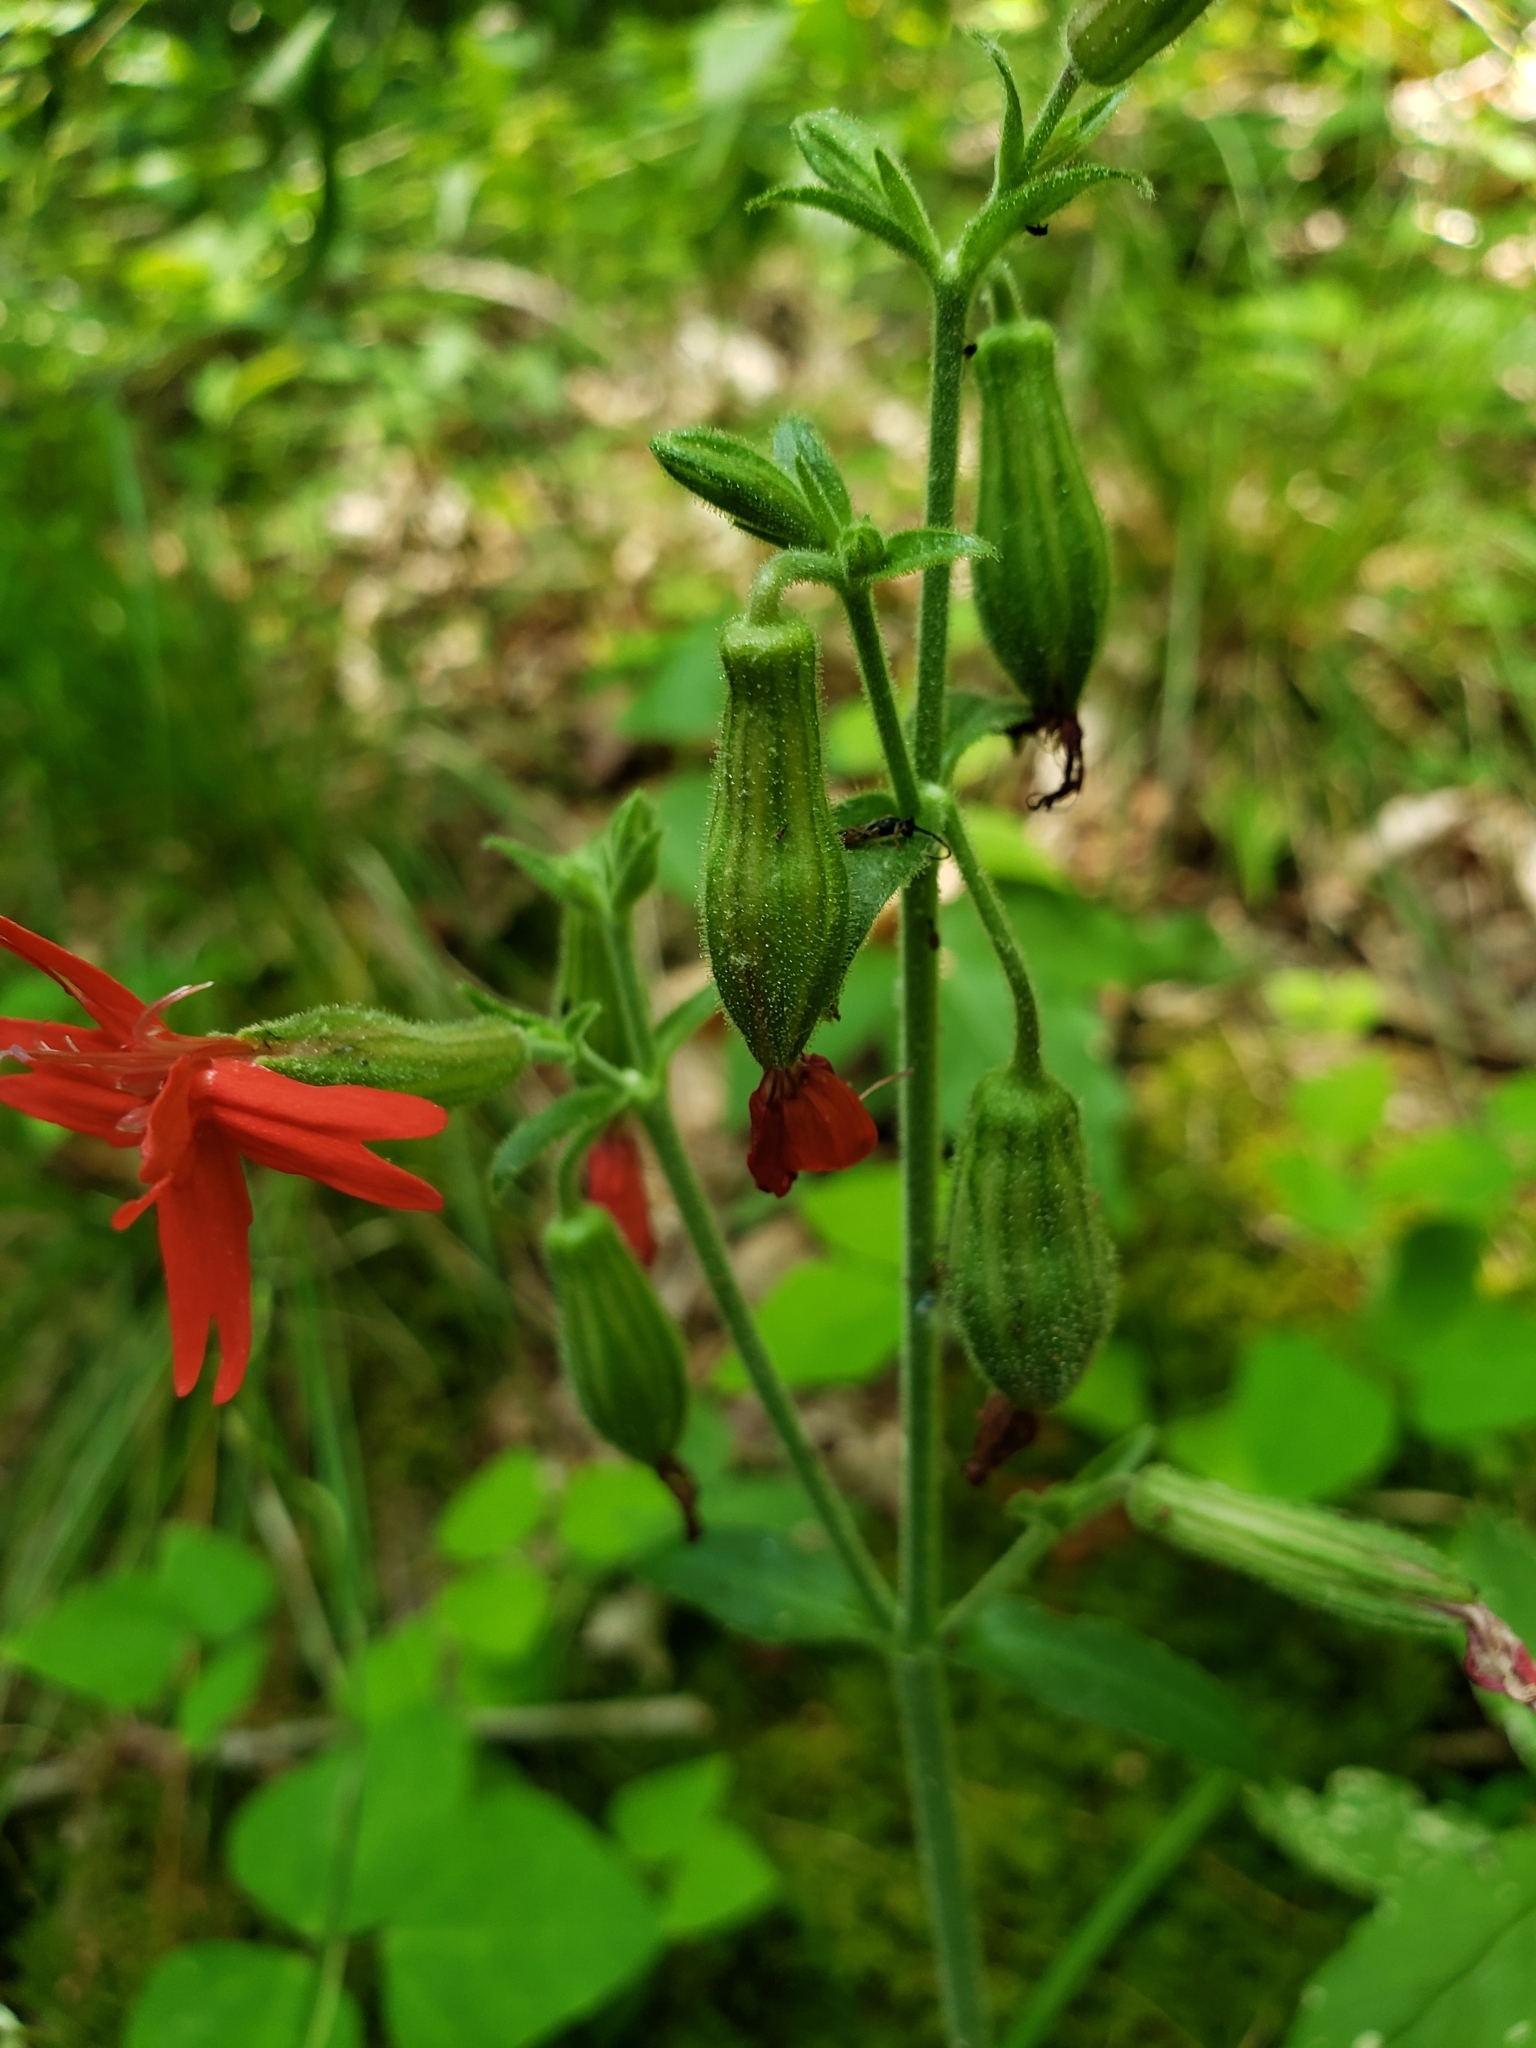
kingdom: Plantae
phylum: Tracheophyta
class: Magnoliopsida
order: Caryophyllales
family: Caryophyllaceae
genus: Silene
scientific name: Silene virginica
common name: Fire-pink
